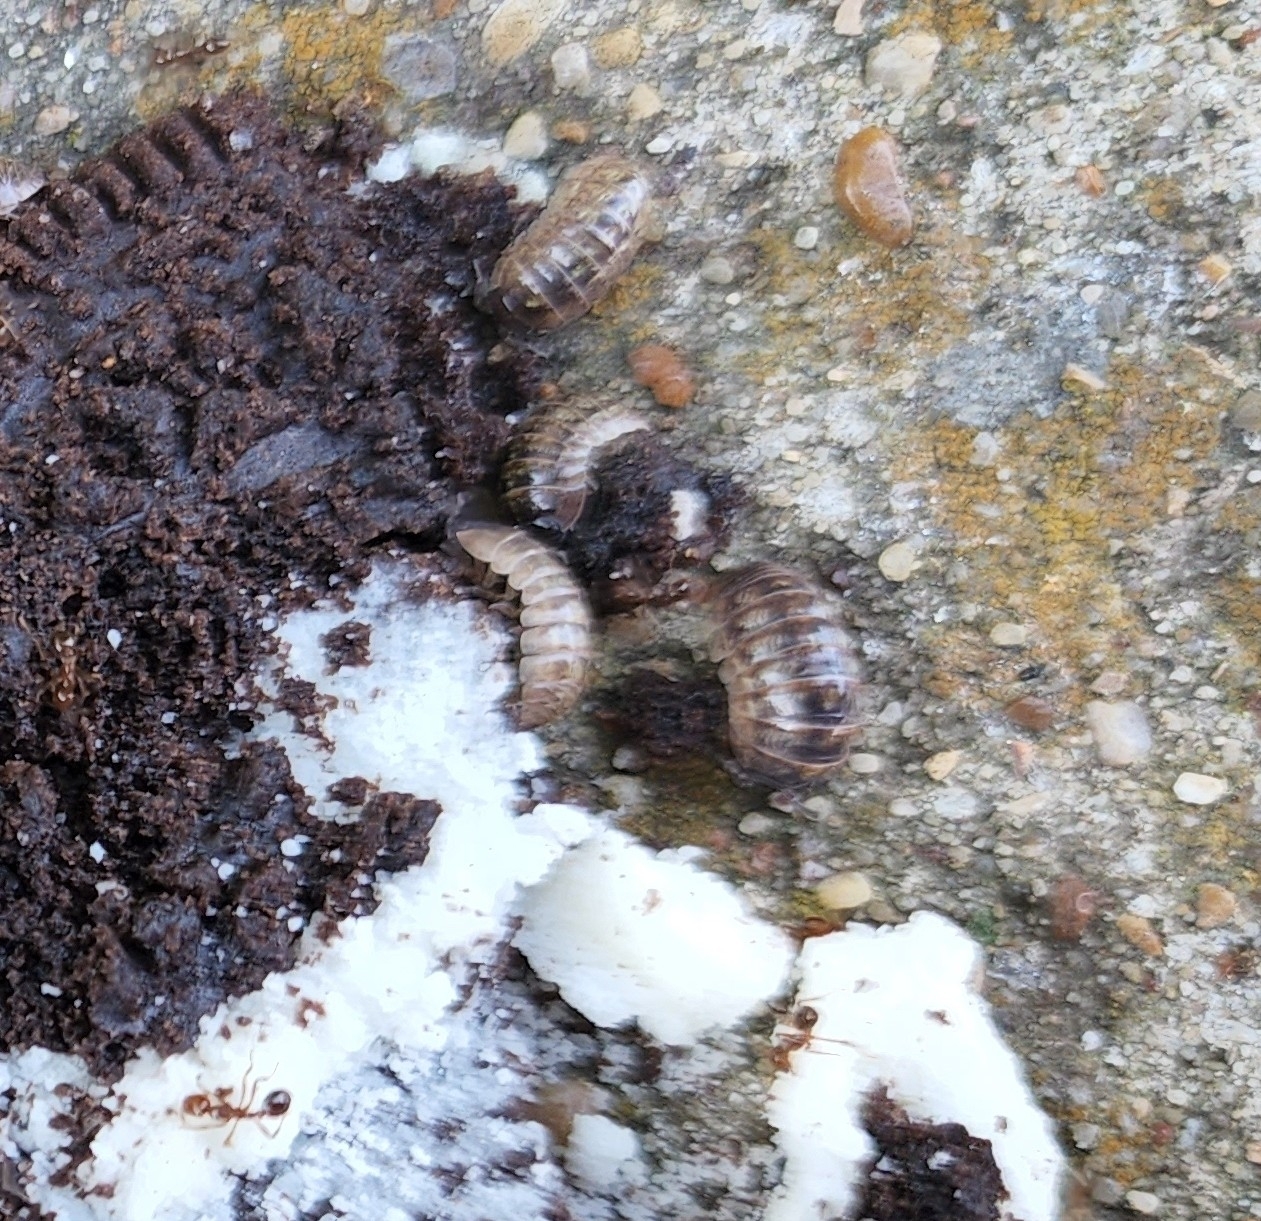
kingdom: Animalia
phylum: Arthropoda
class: Malacostraca
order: Isopoda
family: Armadillidiidae
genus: Armadillidium
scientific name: Armadillidium vulgare
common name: Common pill woodlouse
